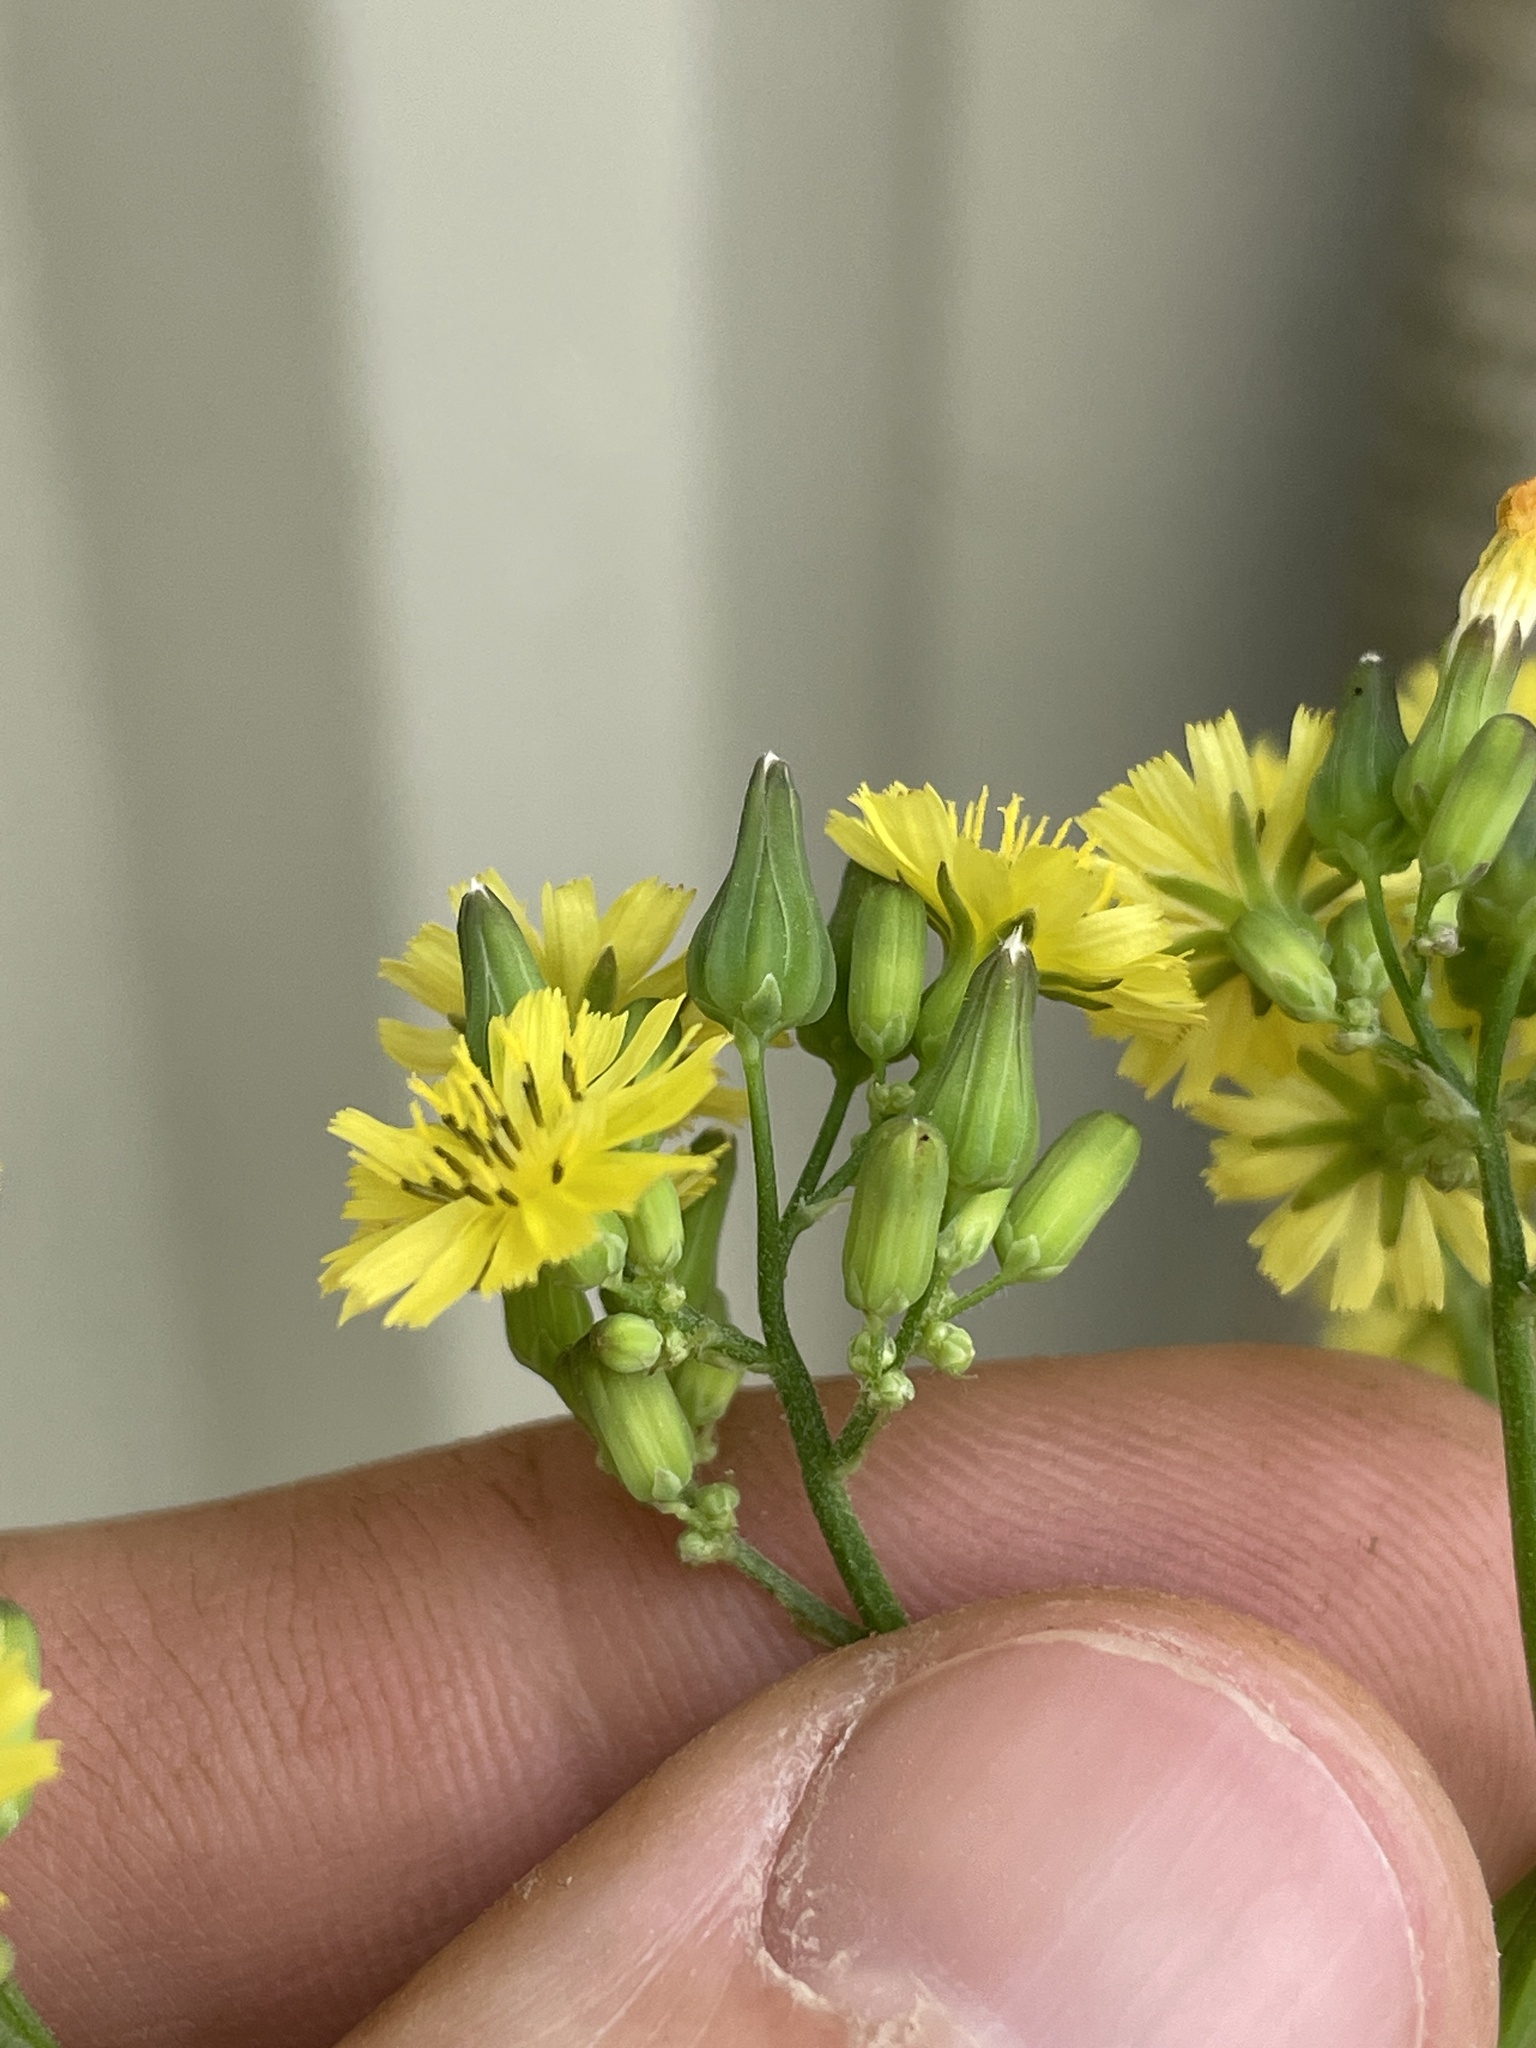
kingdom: Plantae
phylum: Tracheophyta
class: Magnoliopsida
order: Asterales
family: Asteraceae
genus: Youngia
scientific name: Youngia japonica
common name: Oriental false hawksbeard
